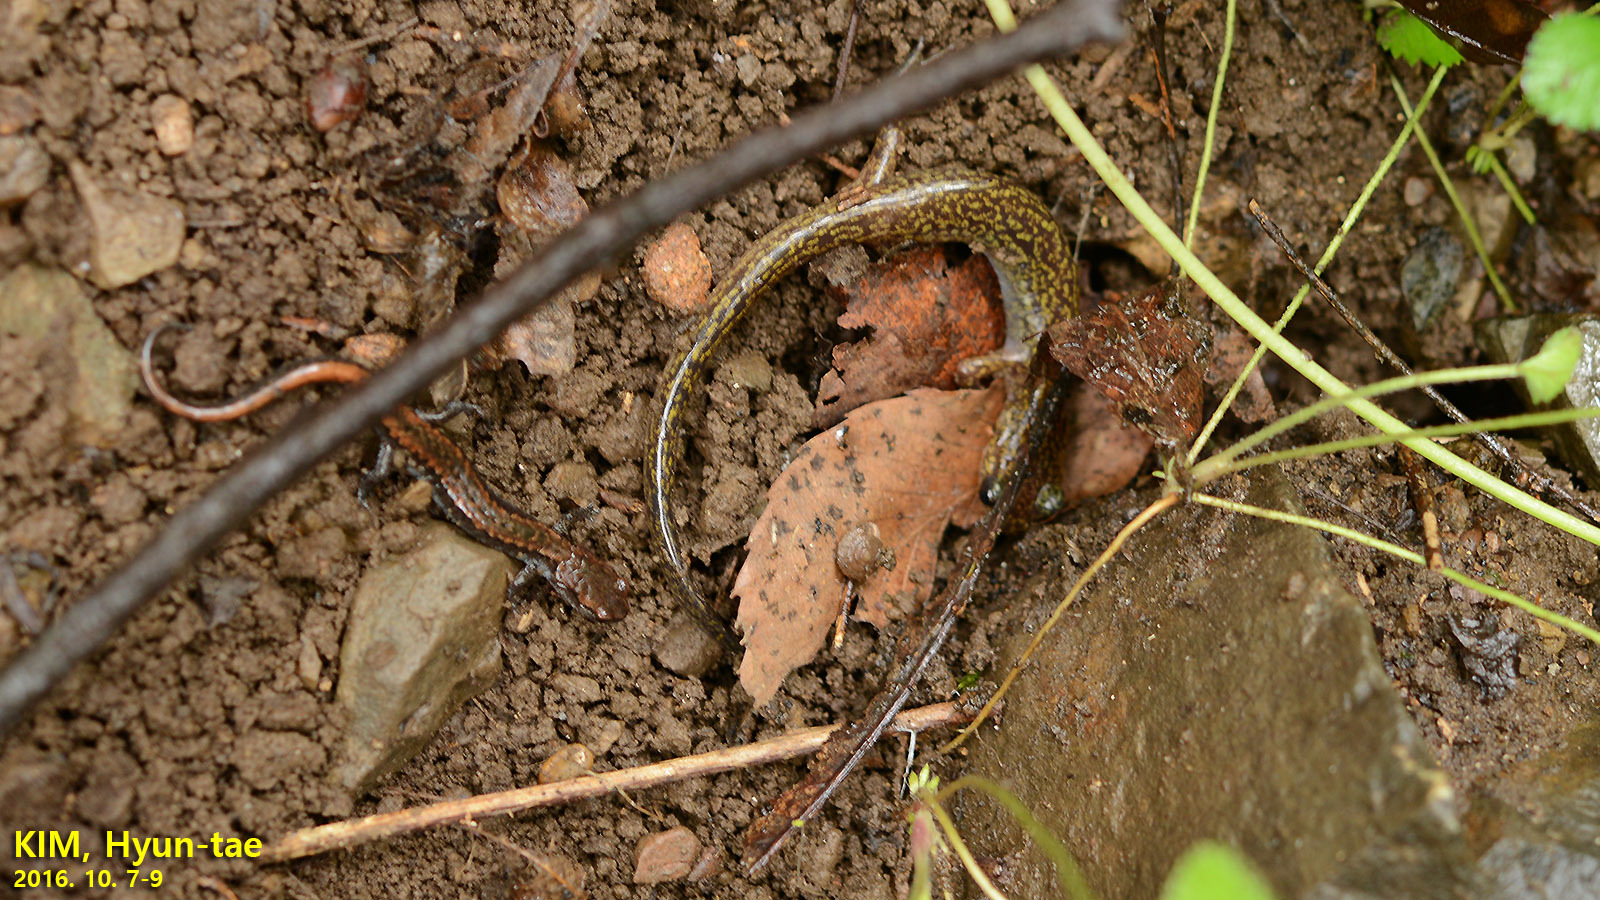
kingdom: Animalia
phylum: Chordata
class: Amphibia
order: Caudata
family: Plethodontidae
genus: Karsenia
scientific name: Karsenia koreana
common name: Korean crevice salamander
